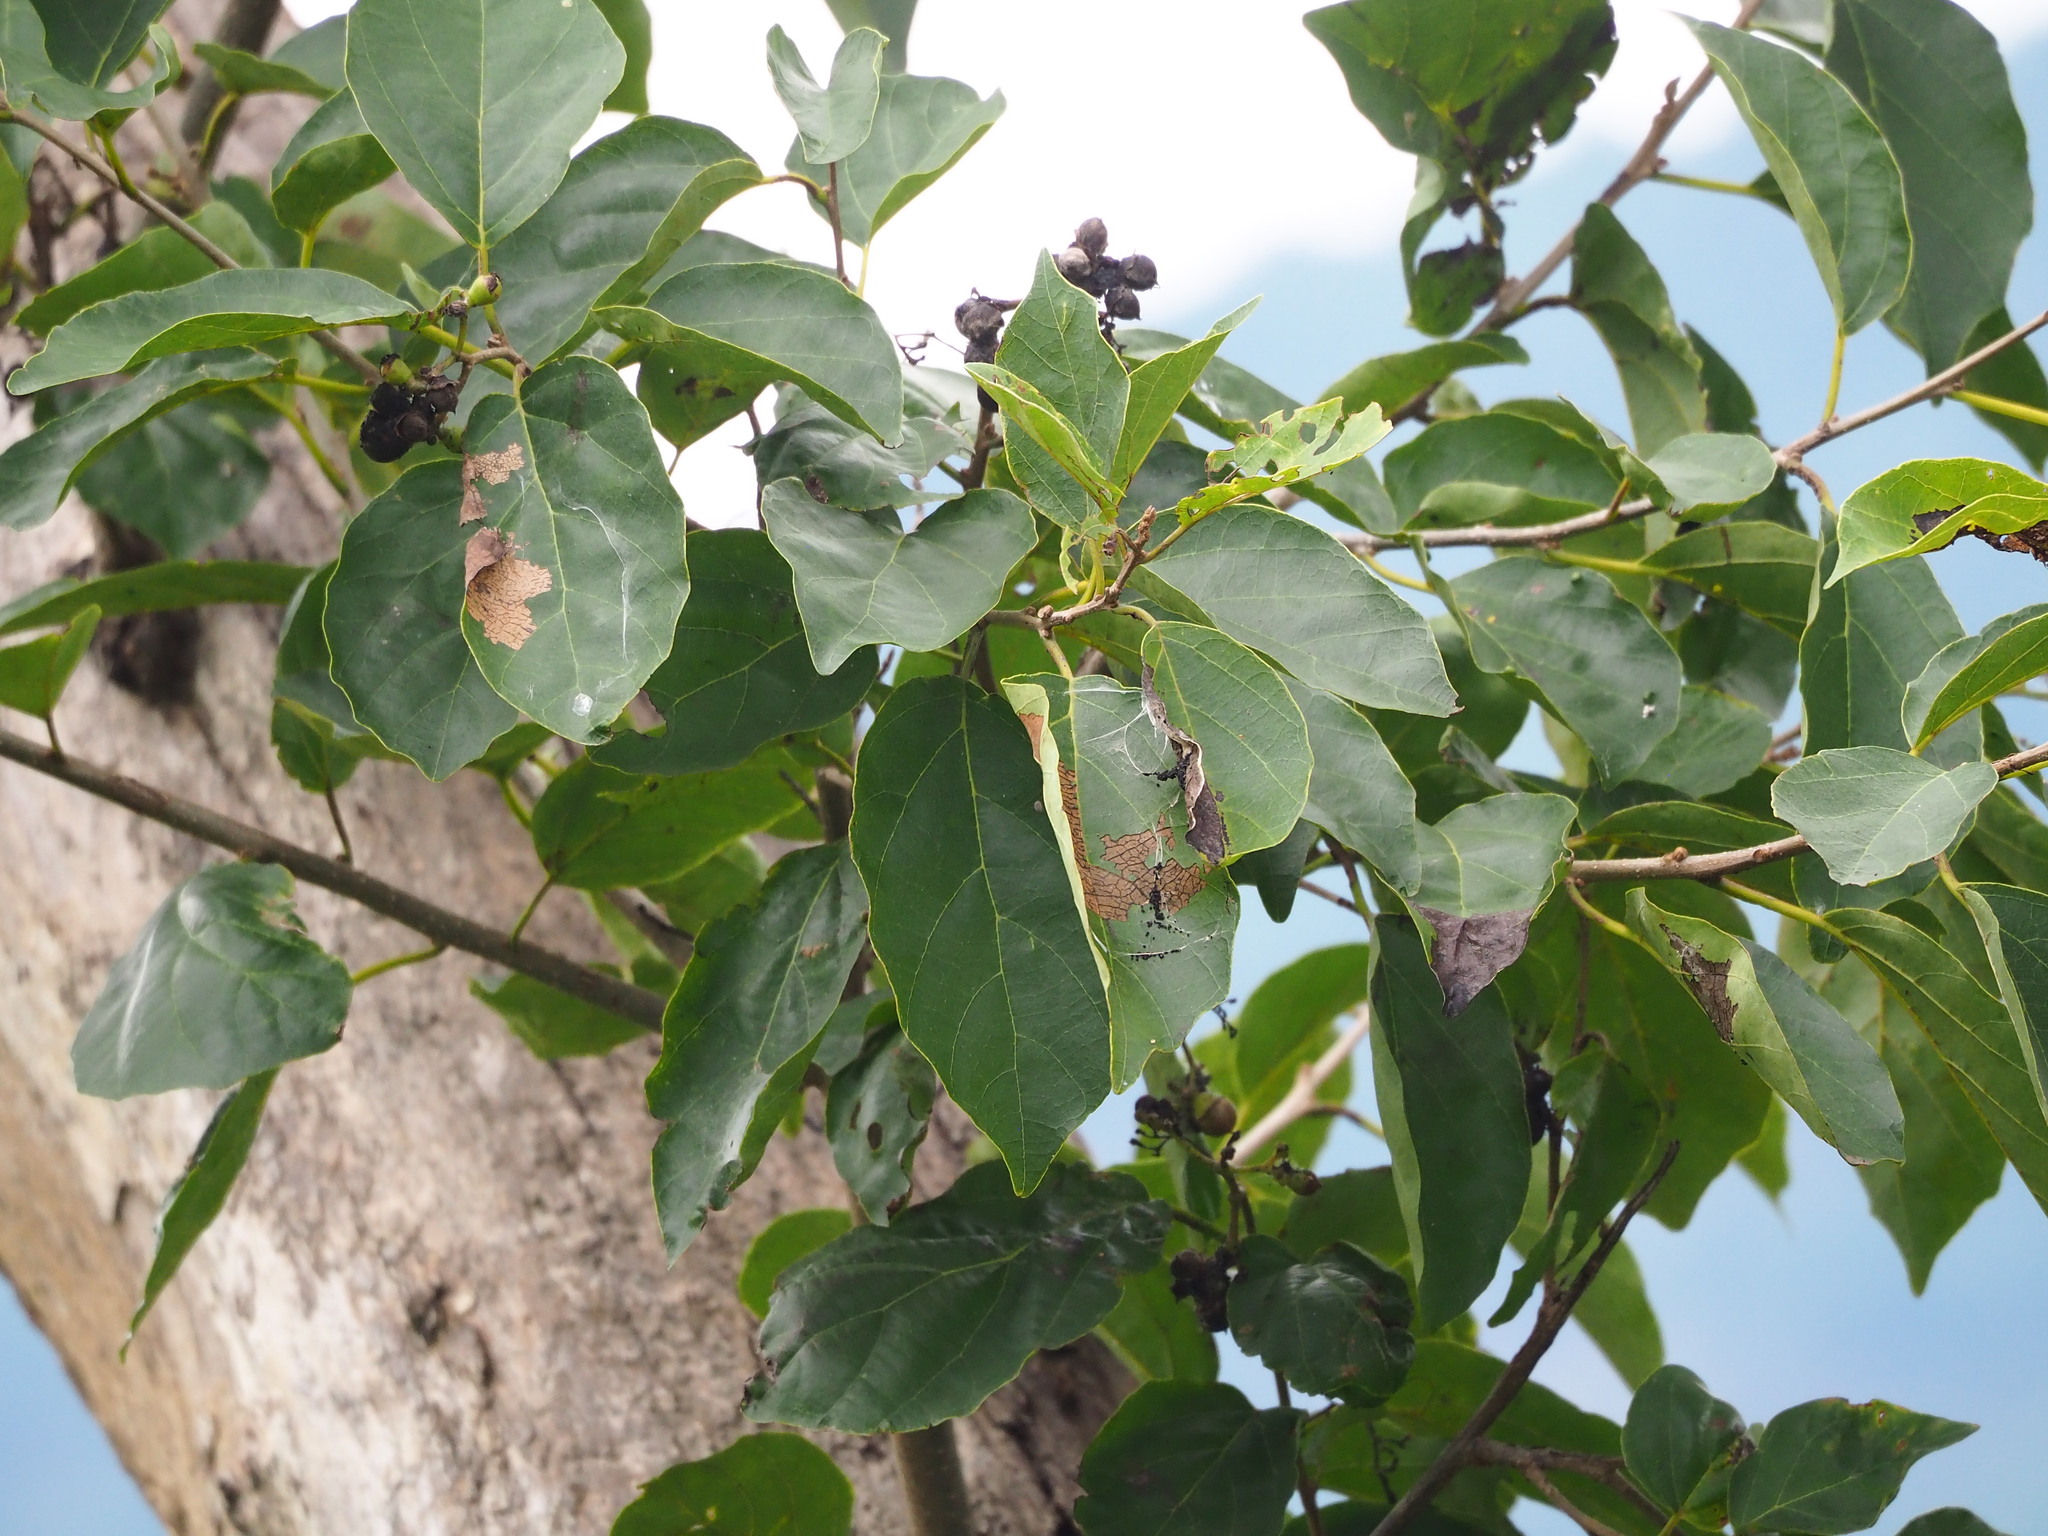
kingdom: Plantae
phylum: Tracheophyta
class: Magnoliopsida
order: Boraginales
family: Cordiaceae
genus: Cordia
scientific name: Cordia dichotoma
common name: Fragrant manjack
